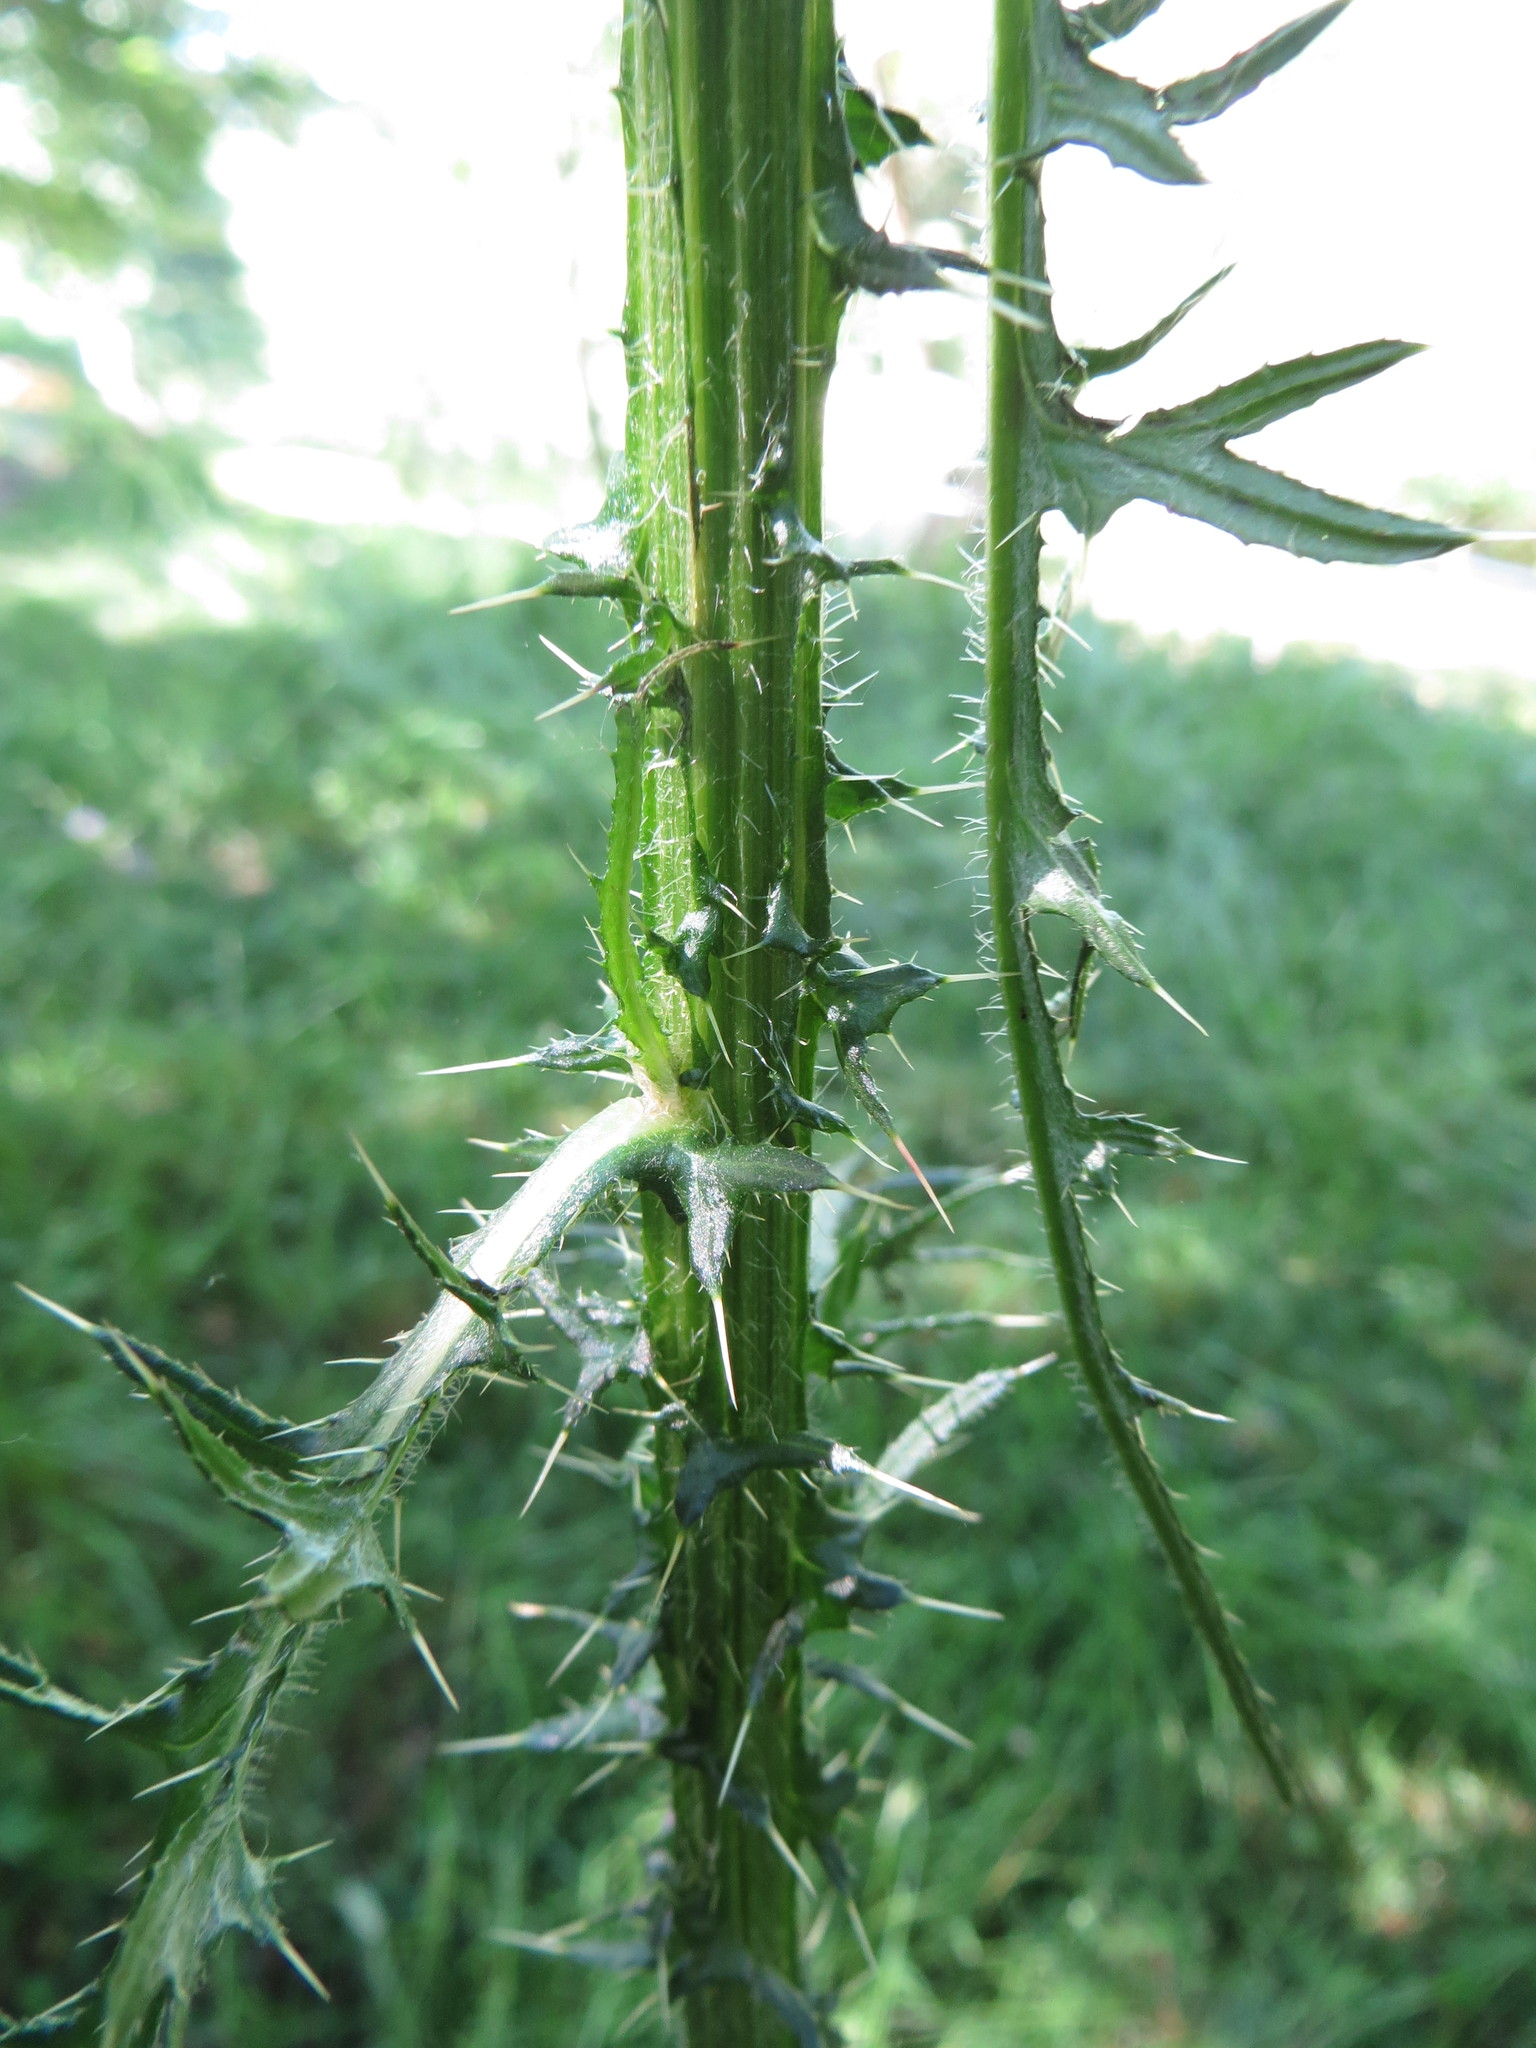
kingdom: Plantae
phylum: Tracheophyta
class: Magnoliopsida
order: Asterales
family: Asteraceae
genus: Cirsium
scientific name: Cirsium palustre
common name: Marsh thistle
